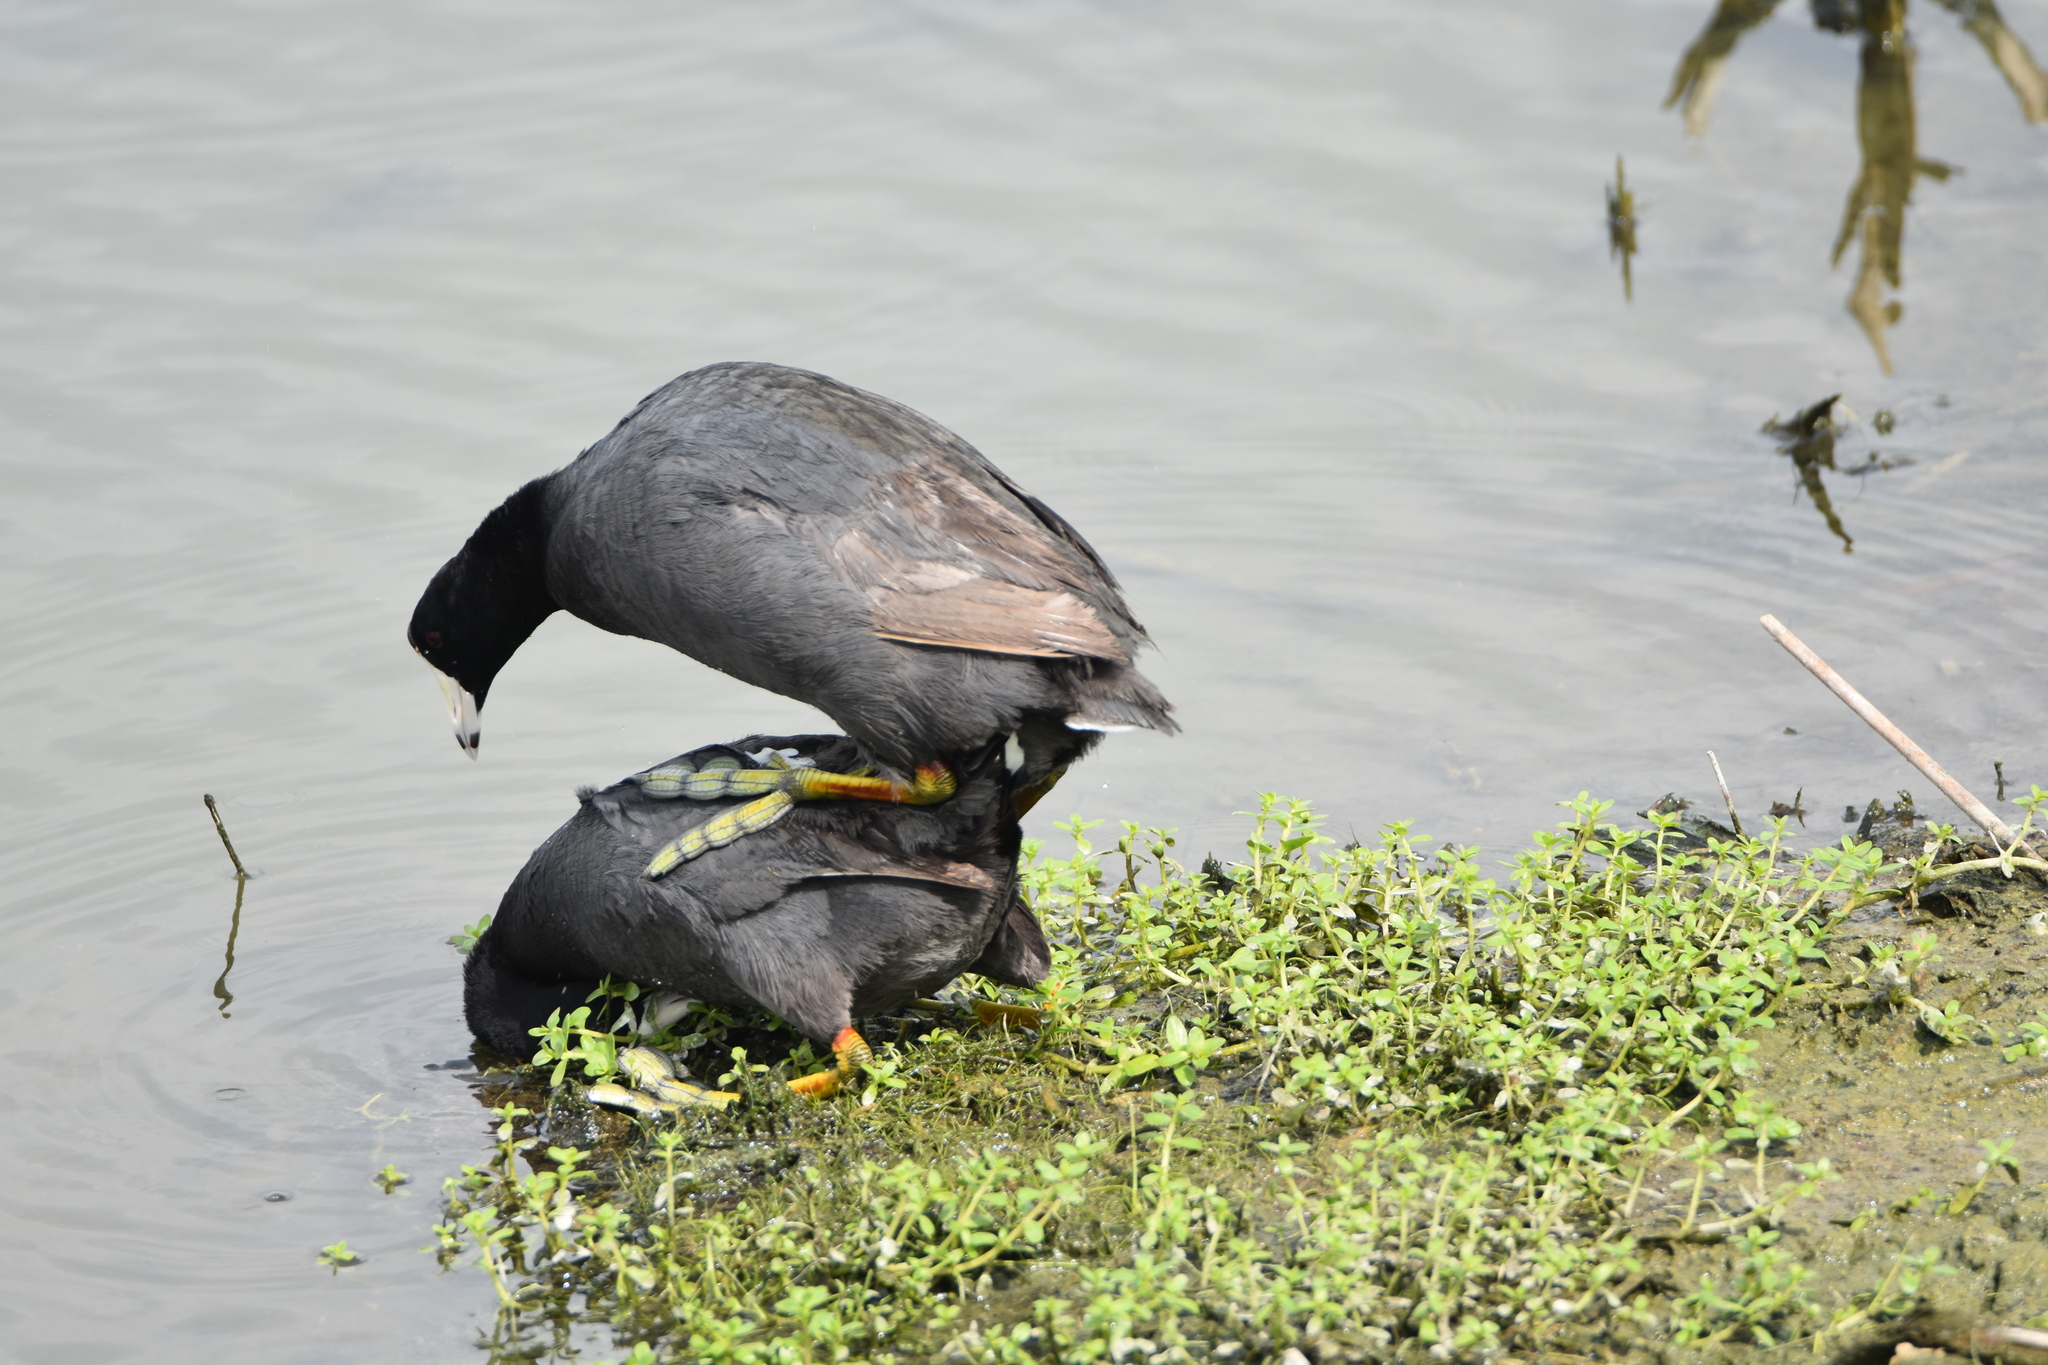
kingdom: Animalia
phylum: Chordata
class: Aves
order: Gruiformes
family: Rallidae
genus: Fulica
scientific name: Fulica americana
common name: American coot
